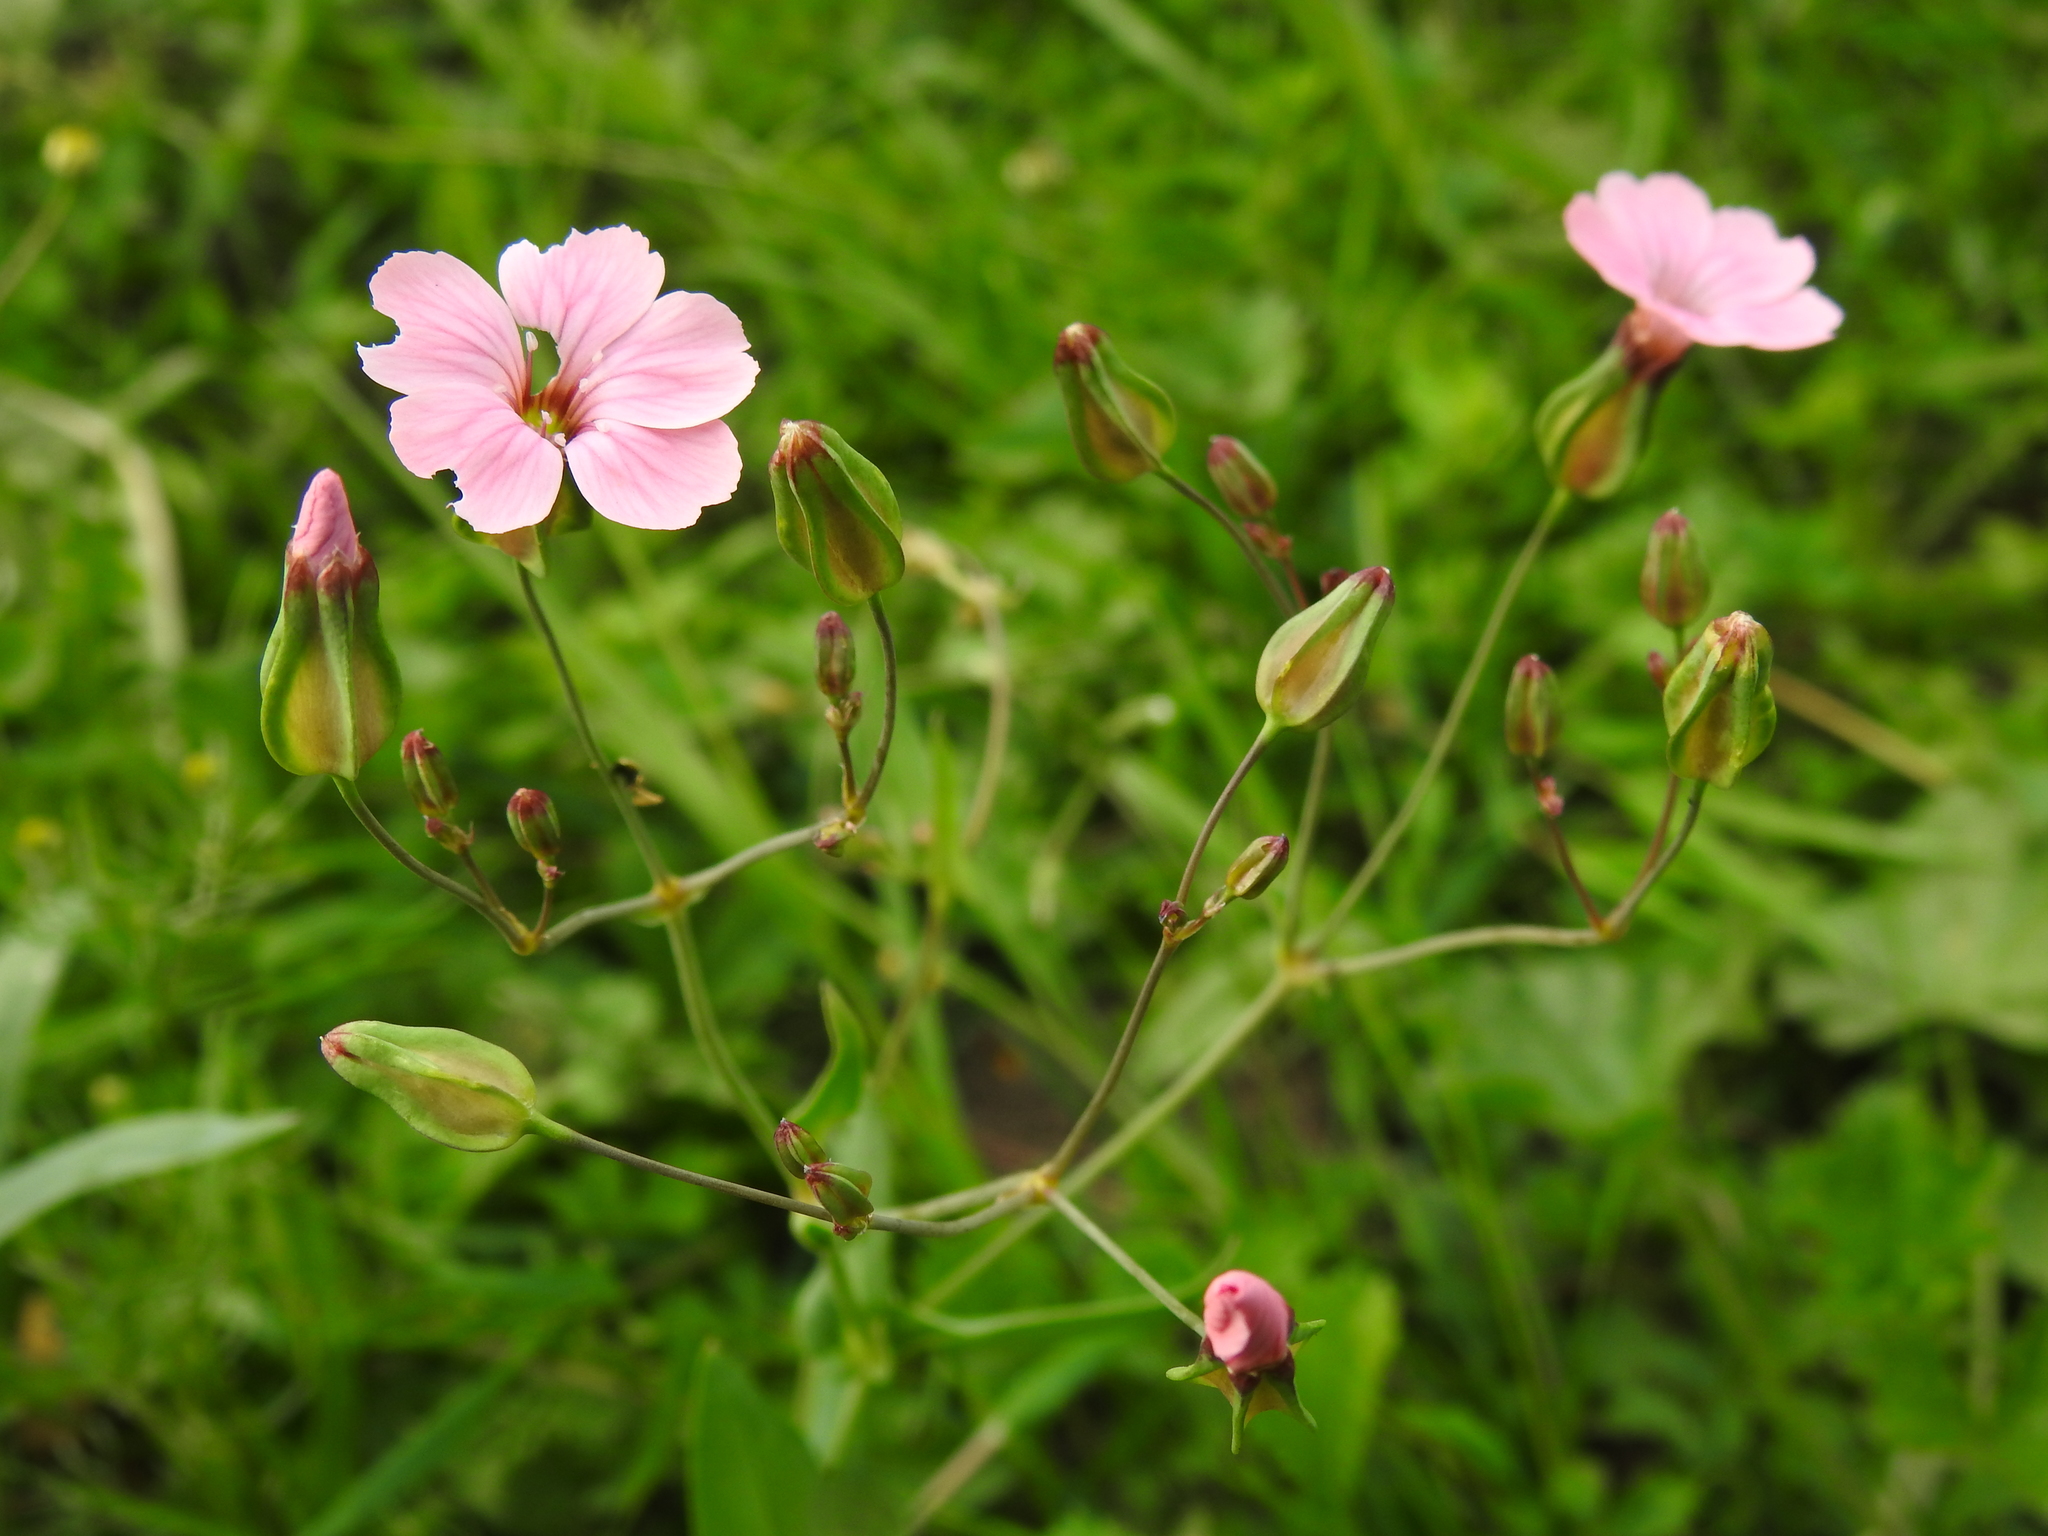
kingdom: Plantae
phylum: Tracheophyta
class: Magnoliopsida
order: Caryophyllales
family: Caryophyllaceae
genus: Gypsophila
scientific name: Gypsophila vaccaria
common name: Cow soapwort
